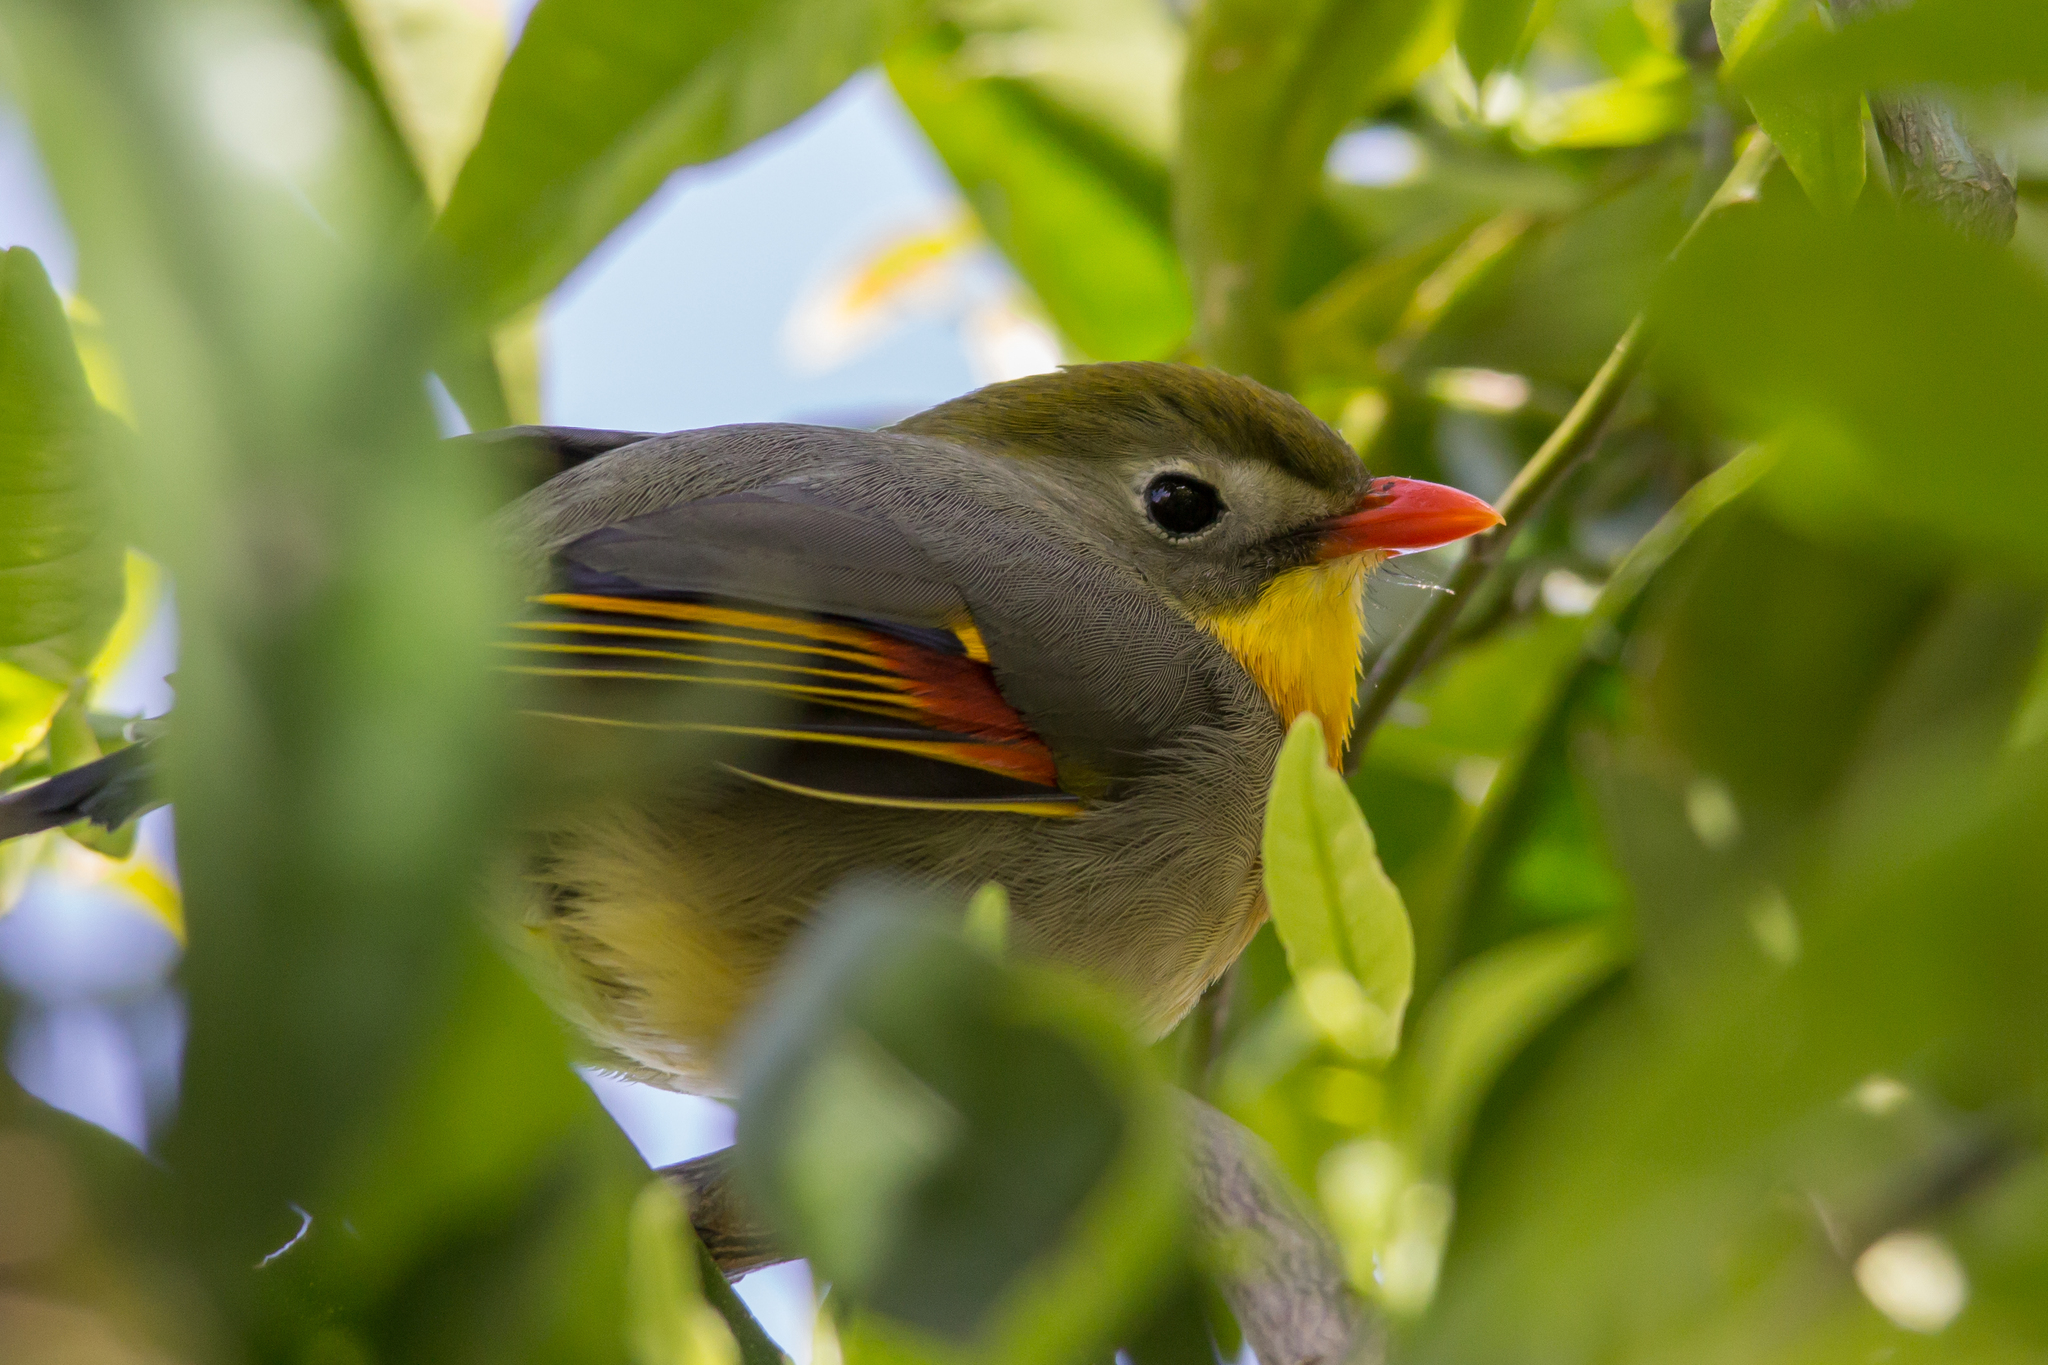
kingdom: Animalia
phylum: Chordata
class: Aves
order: Passeriformes
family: Leiothrichidae
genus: Leiothrix
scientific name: Leiothrix lutea
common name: Red-billed leiothrix
